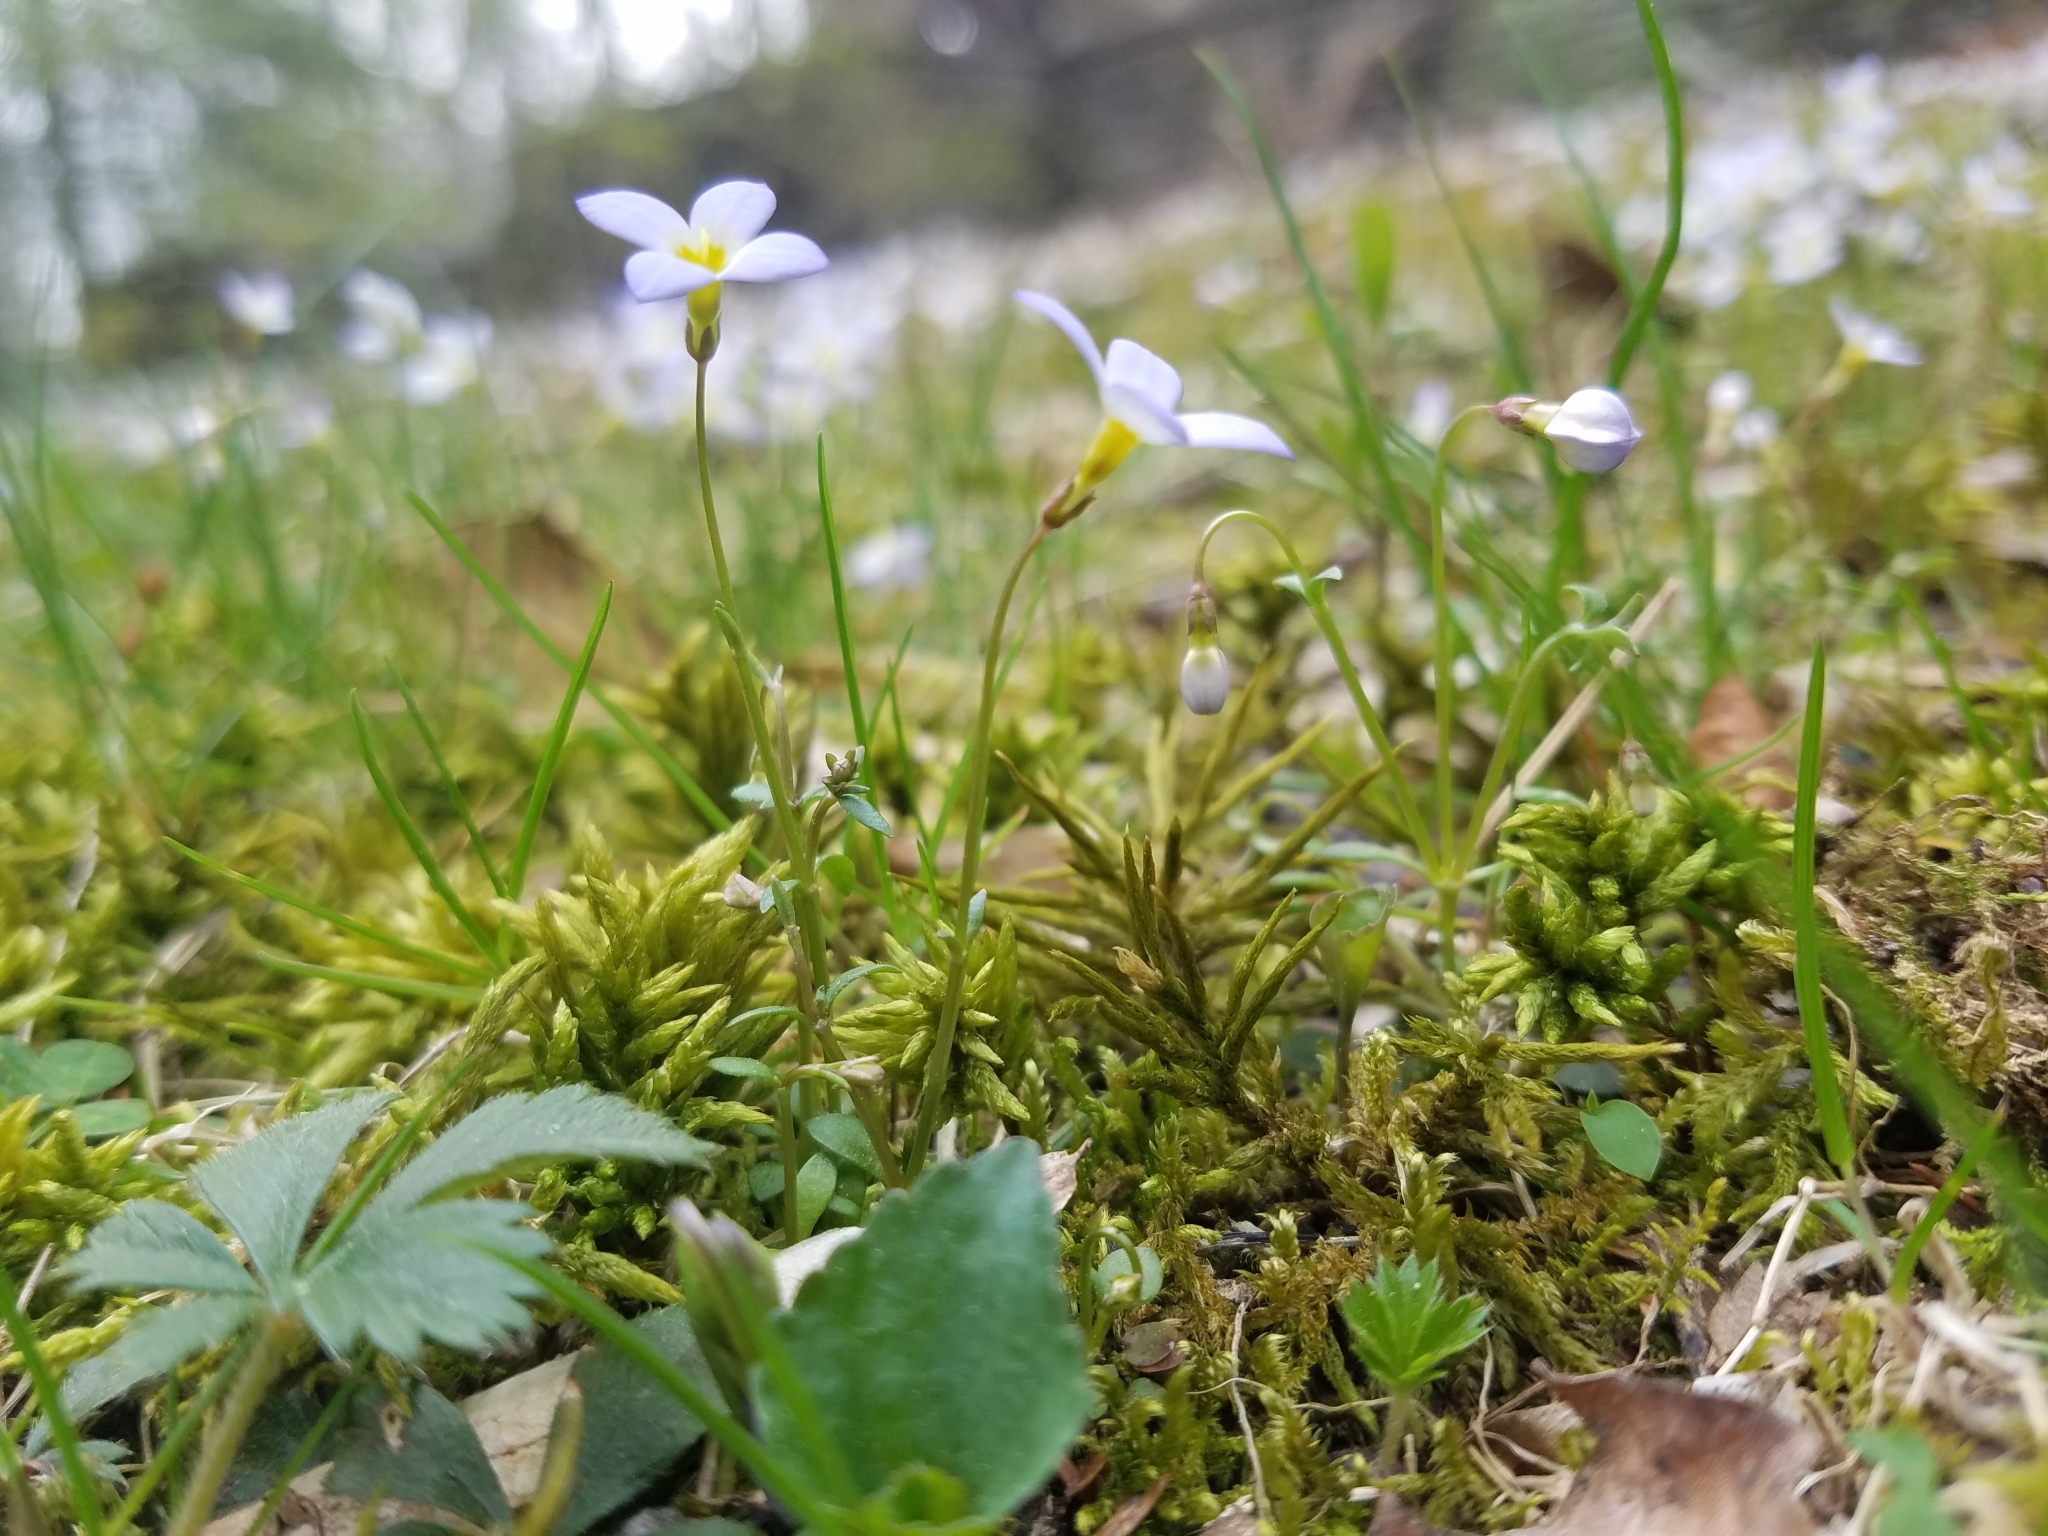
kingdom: Plantae
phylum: Tracheophyta
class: Magnoliopsida
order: Gentianales
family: Rubiaceae
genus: Houstonia
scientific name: Houstonia caerulea
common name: Bluets
